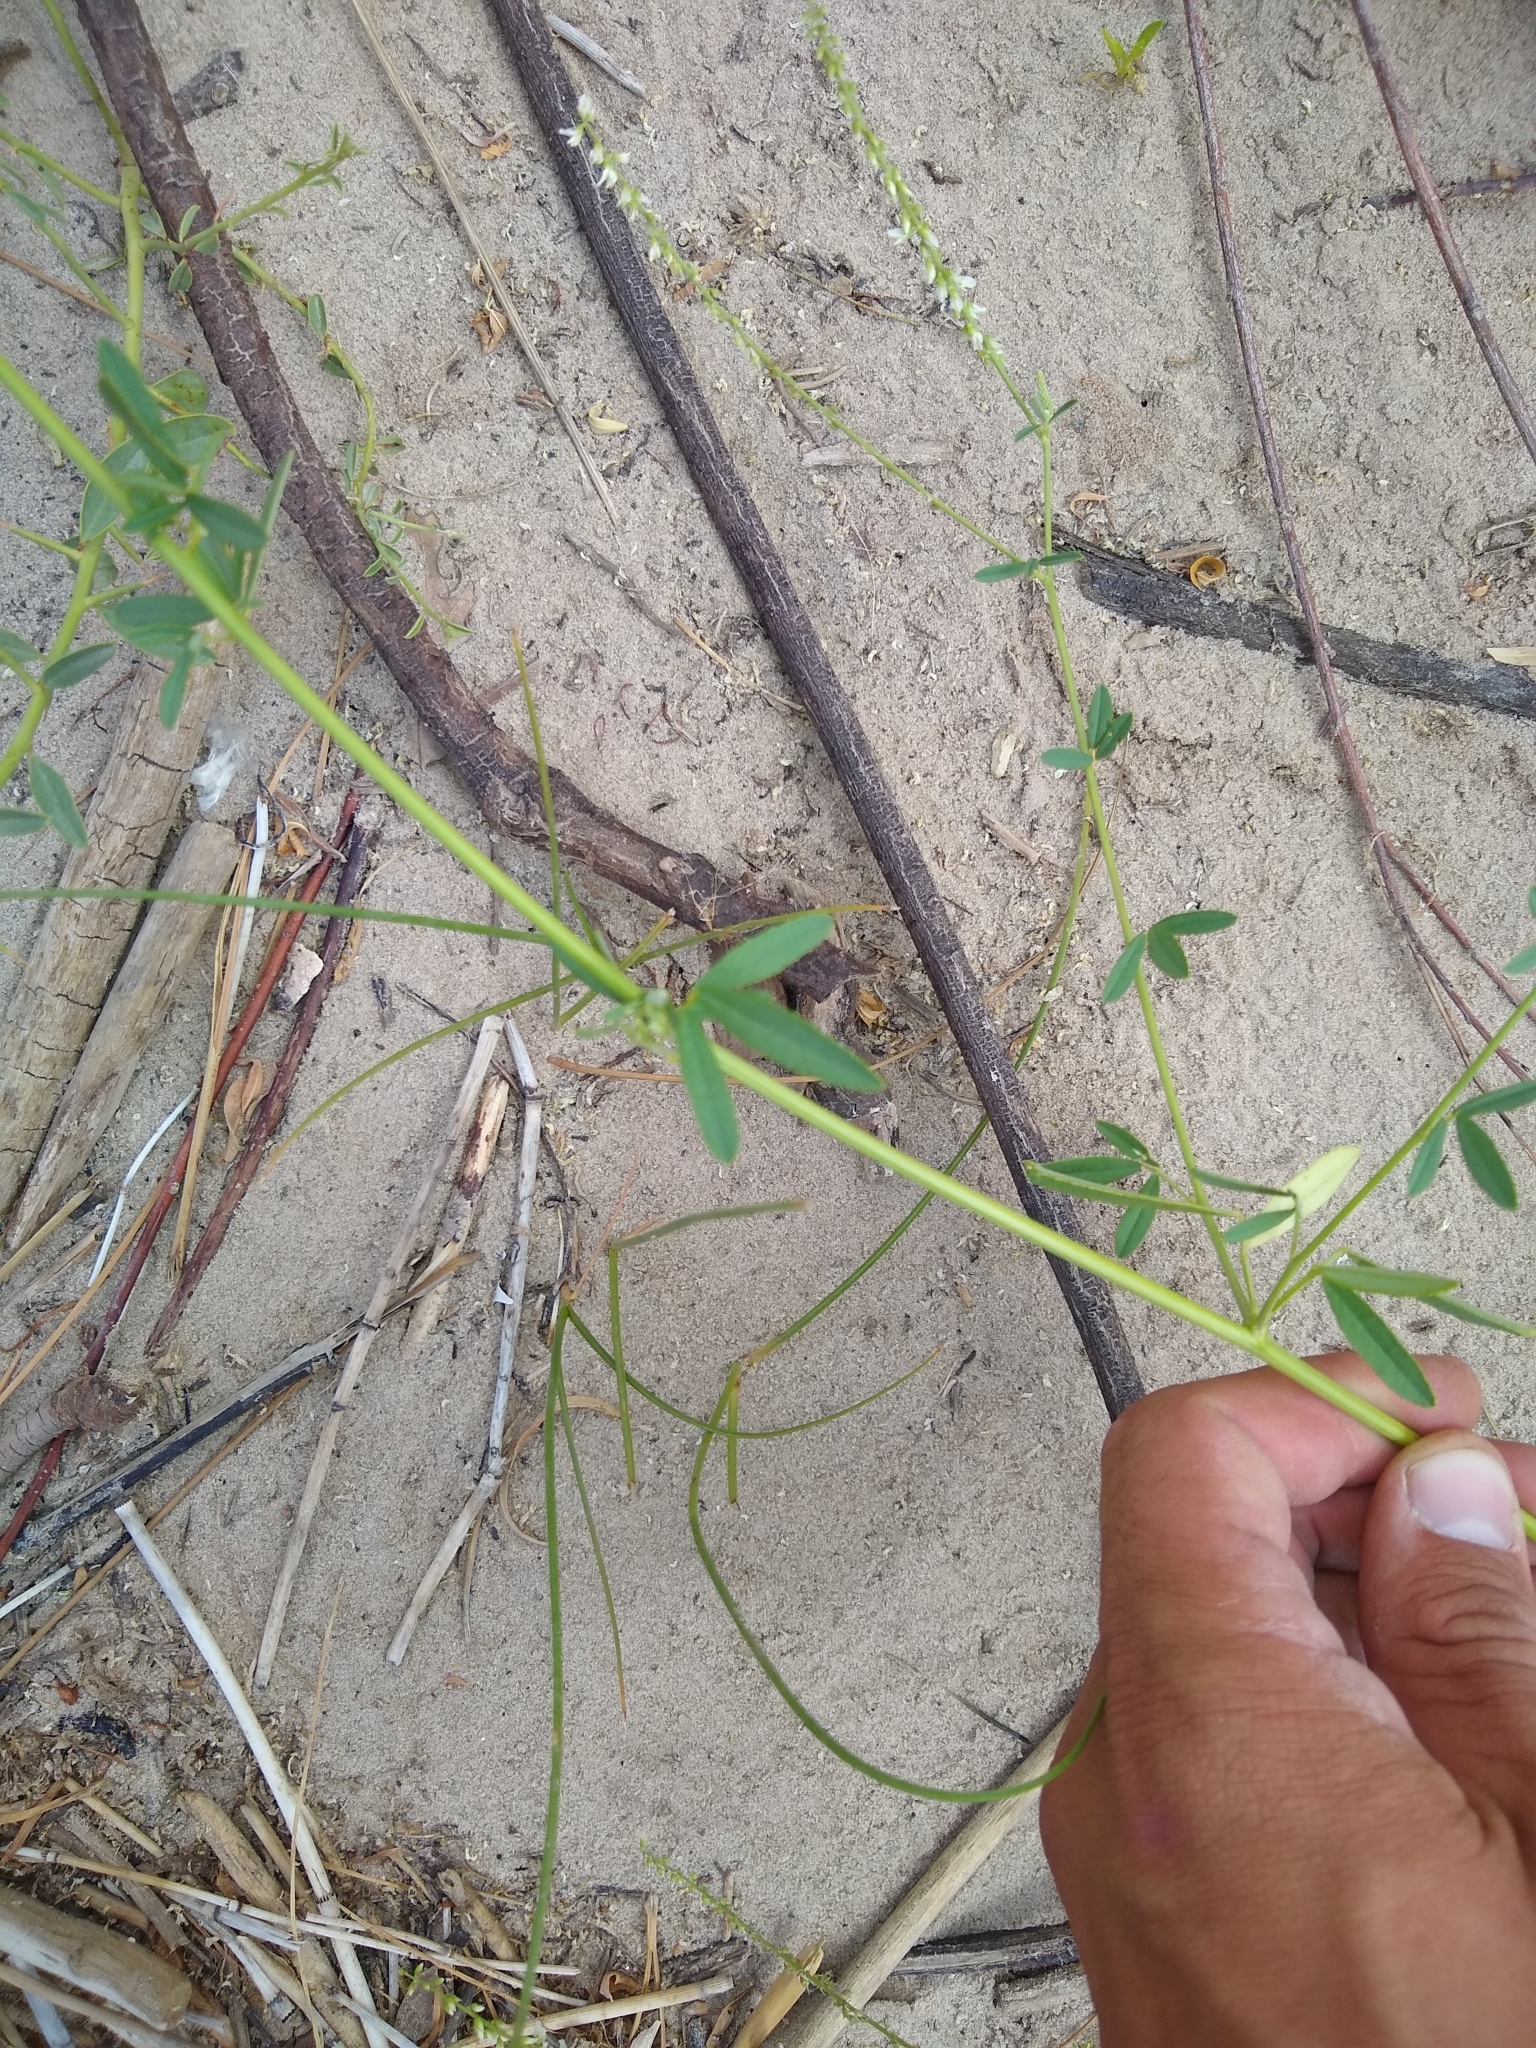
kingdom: Plantae
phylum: Tracheophyta
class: Magnoliopsida
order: Fabales
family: Fabaceae
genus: Melilotus
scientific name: Melilotus albus
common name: White melilot
